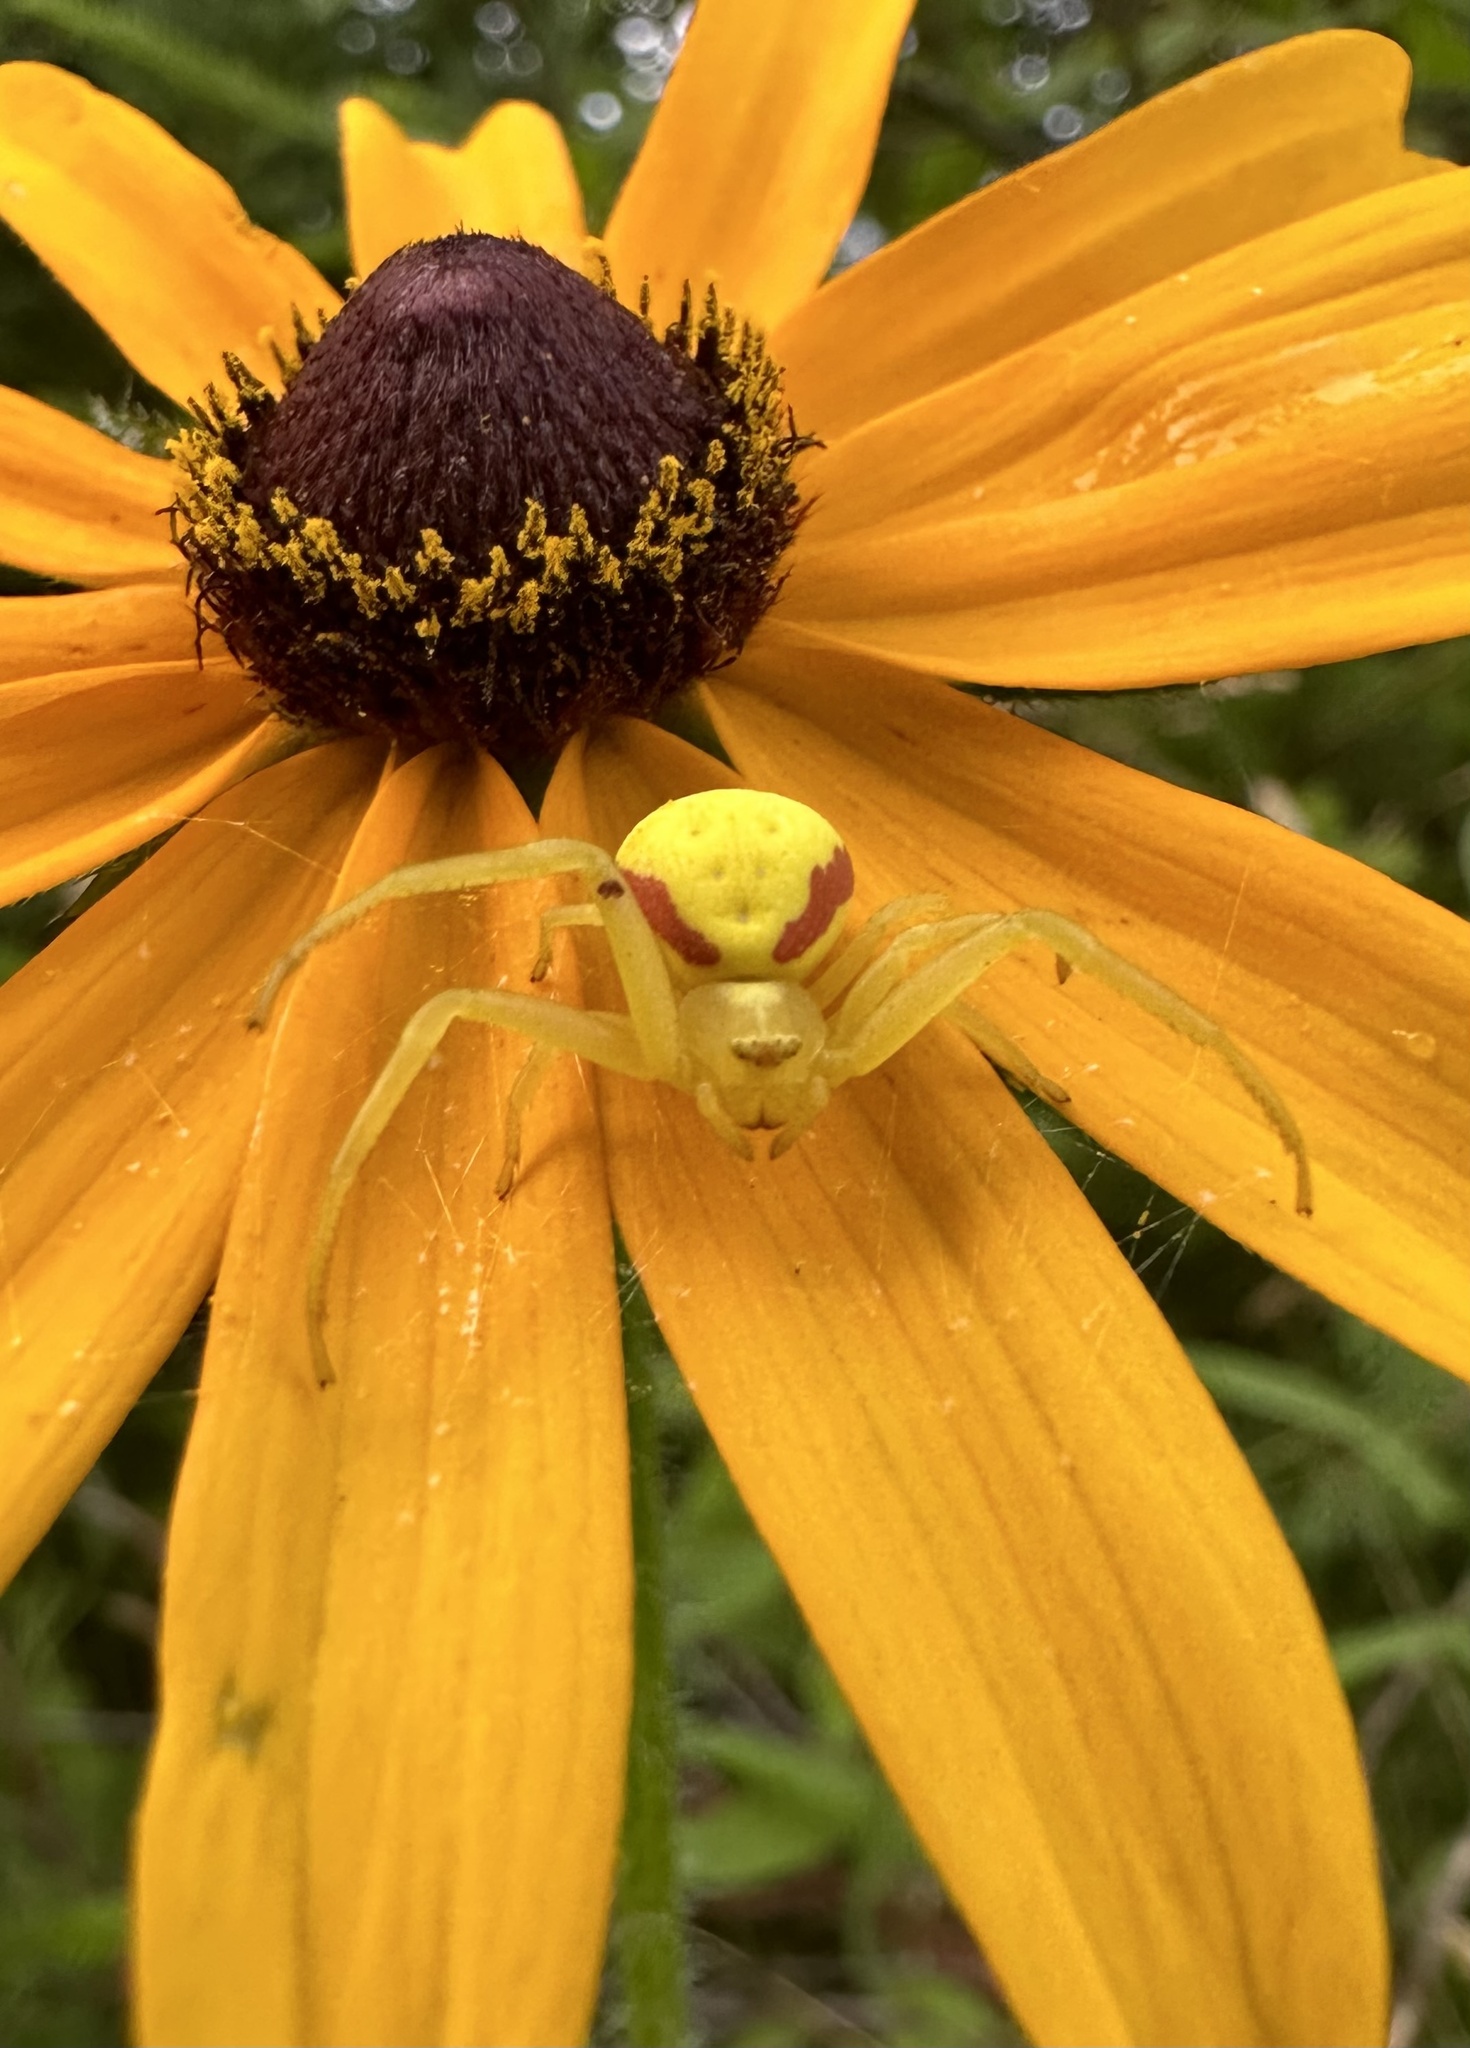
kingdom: Animalia
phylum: Arthropoda
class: Arachnida
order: Araneae
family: Thomisidae
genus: Misumena
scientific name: Misumena vatia
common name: Goldenrod crab spider
